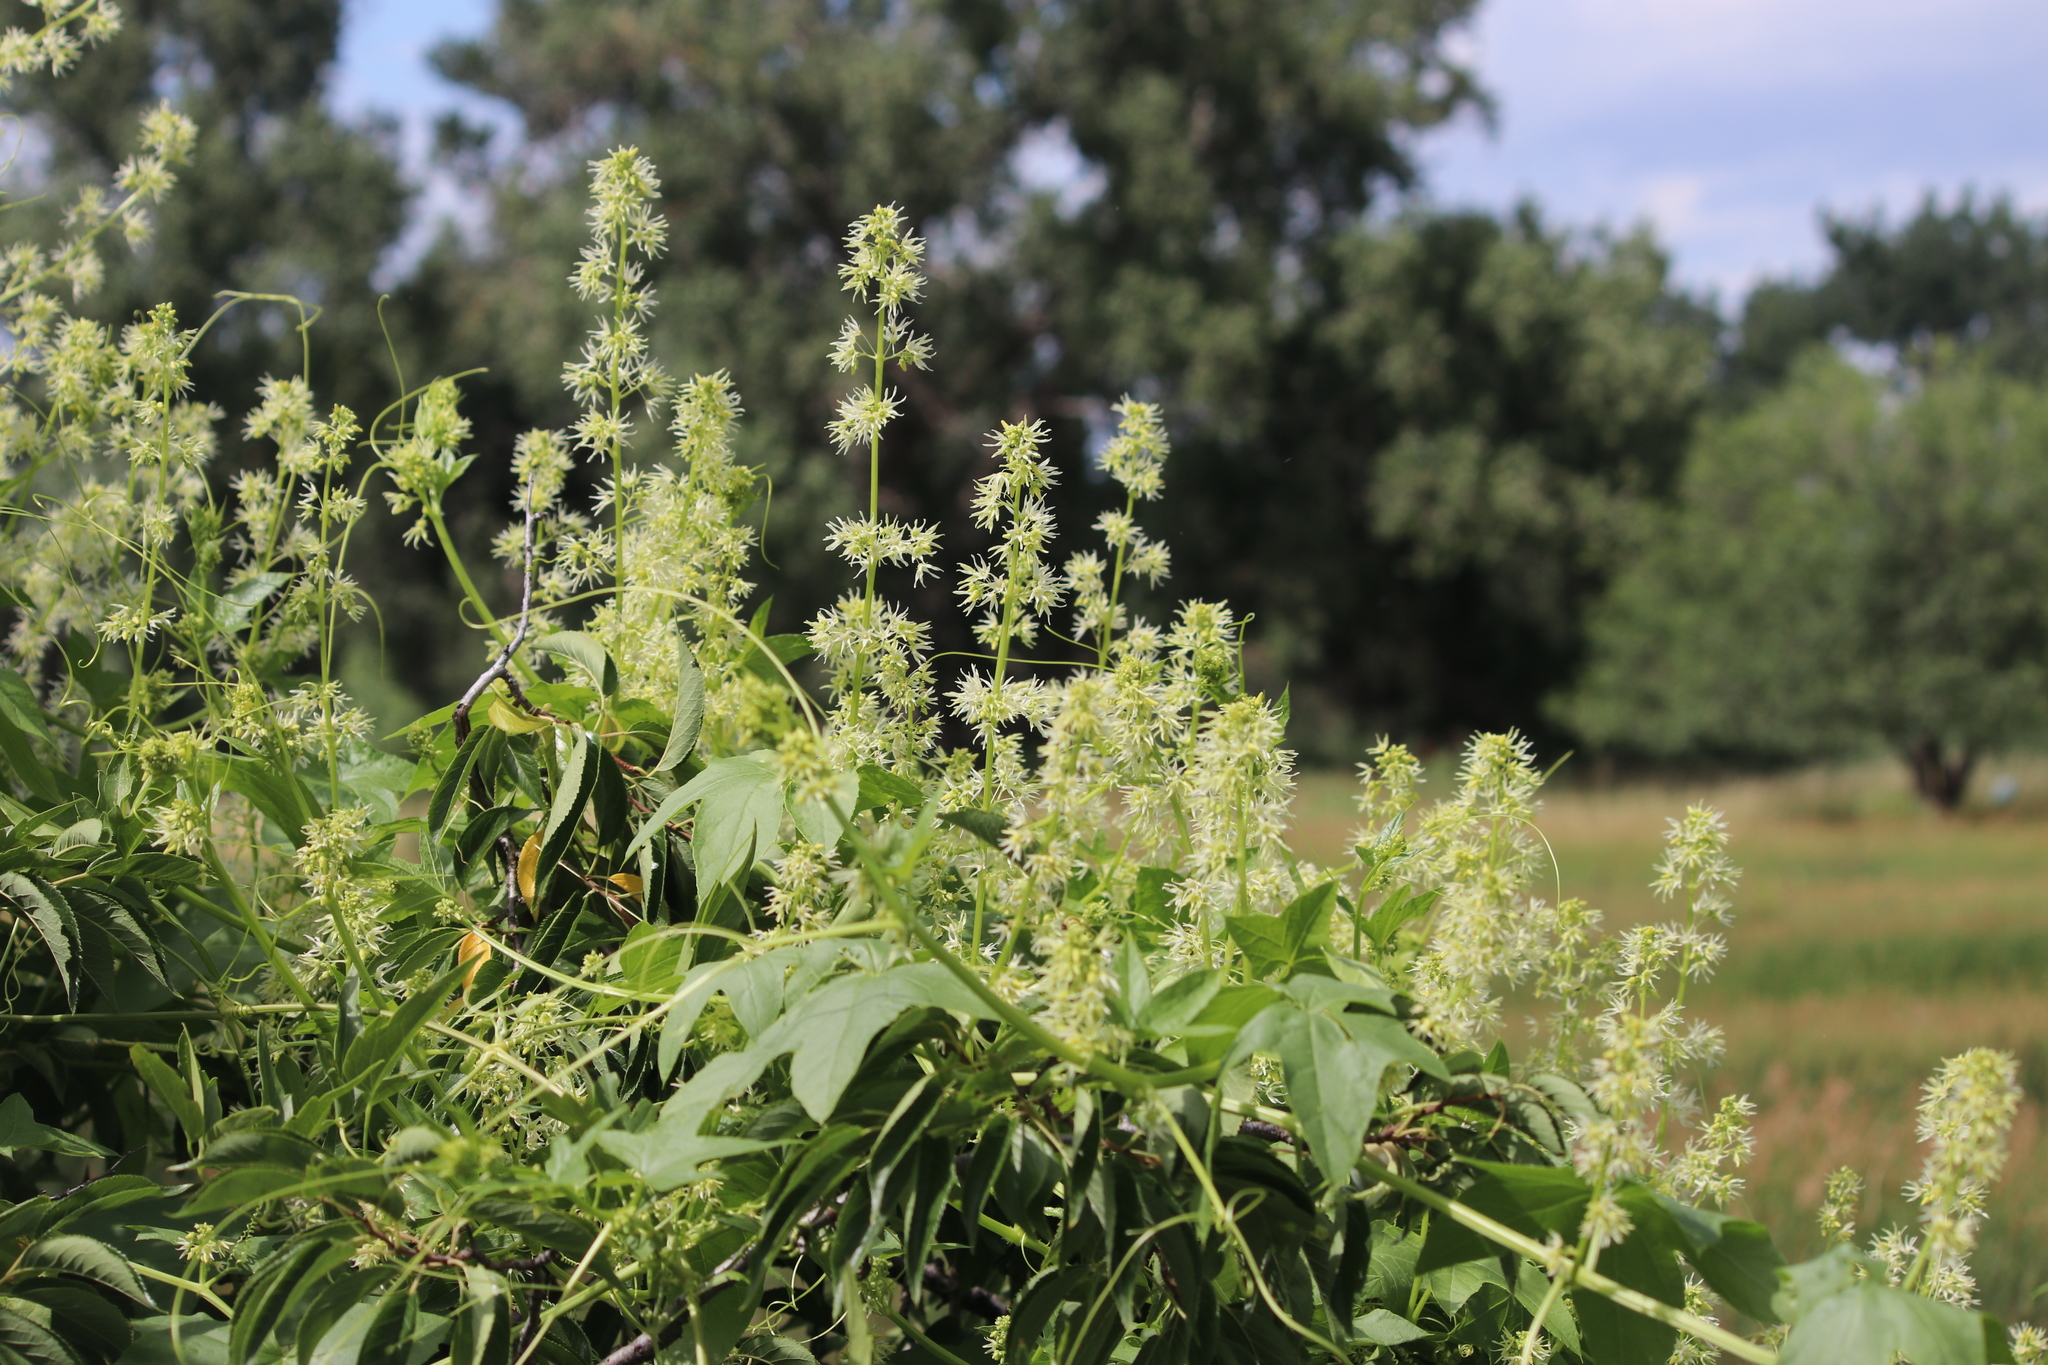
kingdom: Plantae
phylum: Tracheophyta
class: Magnoliopsida
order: Cucurbitales
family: Cucurbitaceae
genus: Echinocystis
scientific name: Echinocystis lobata
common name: Wild cucumber
